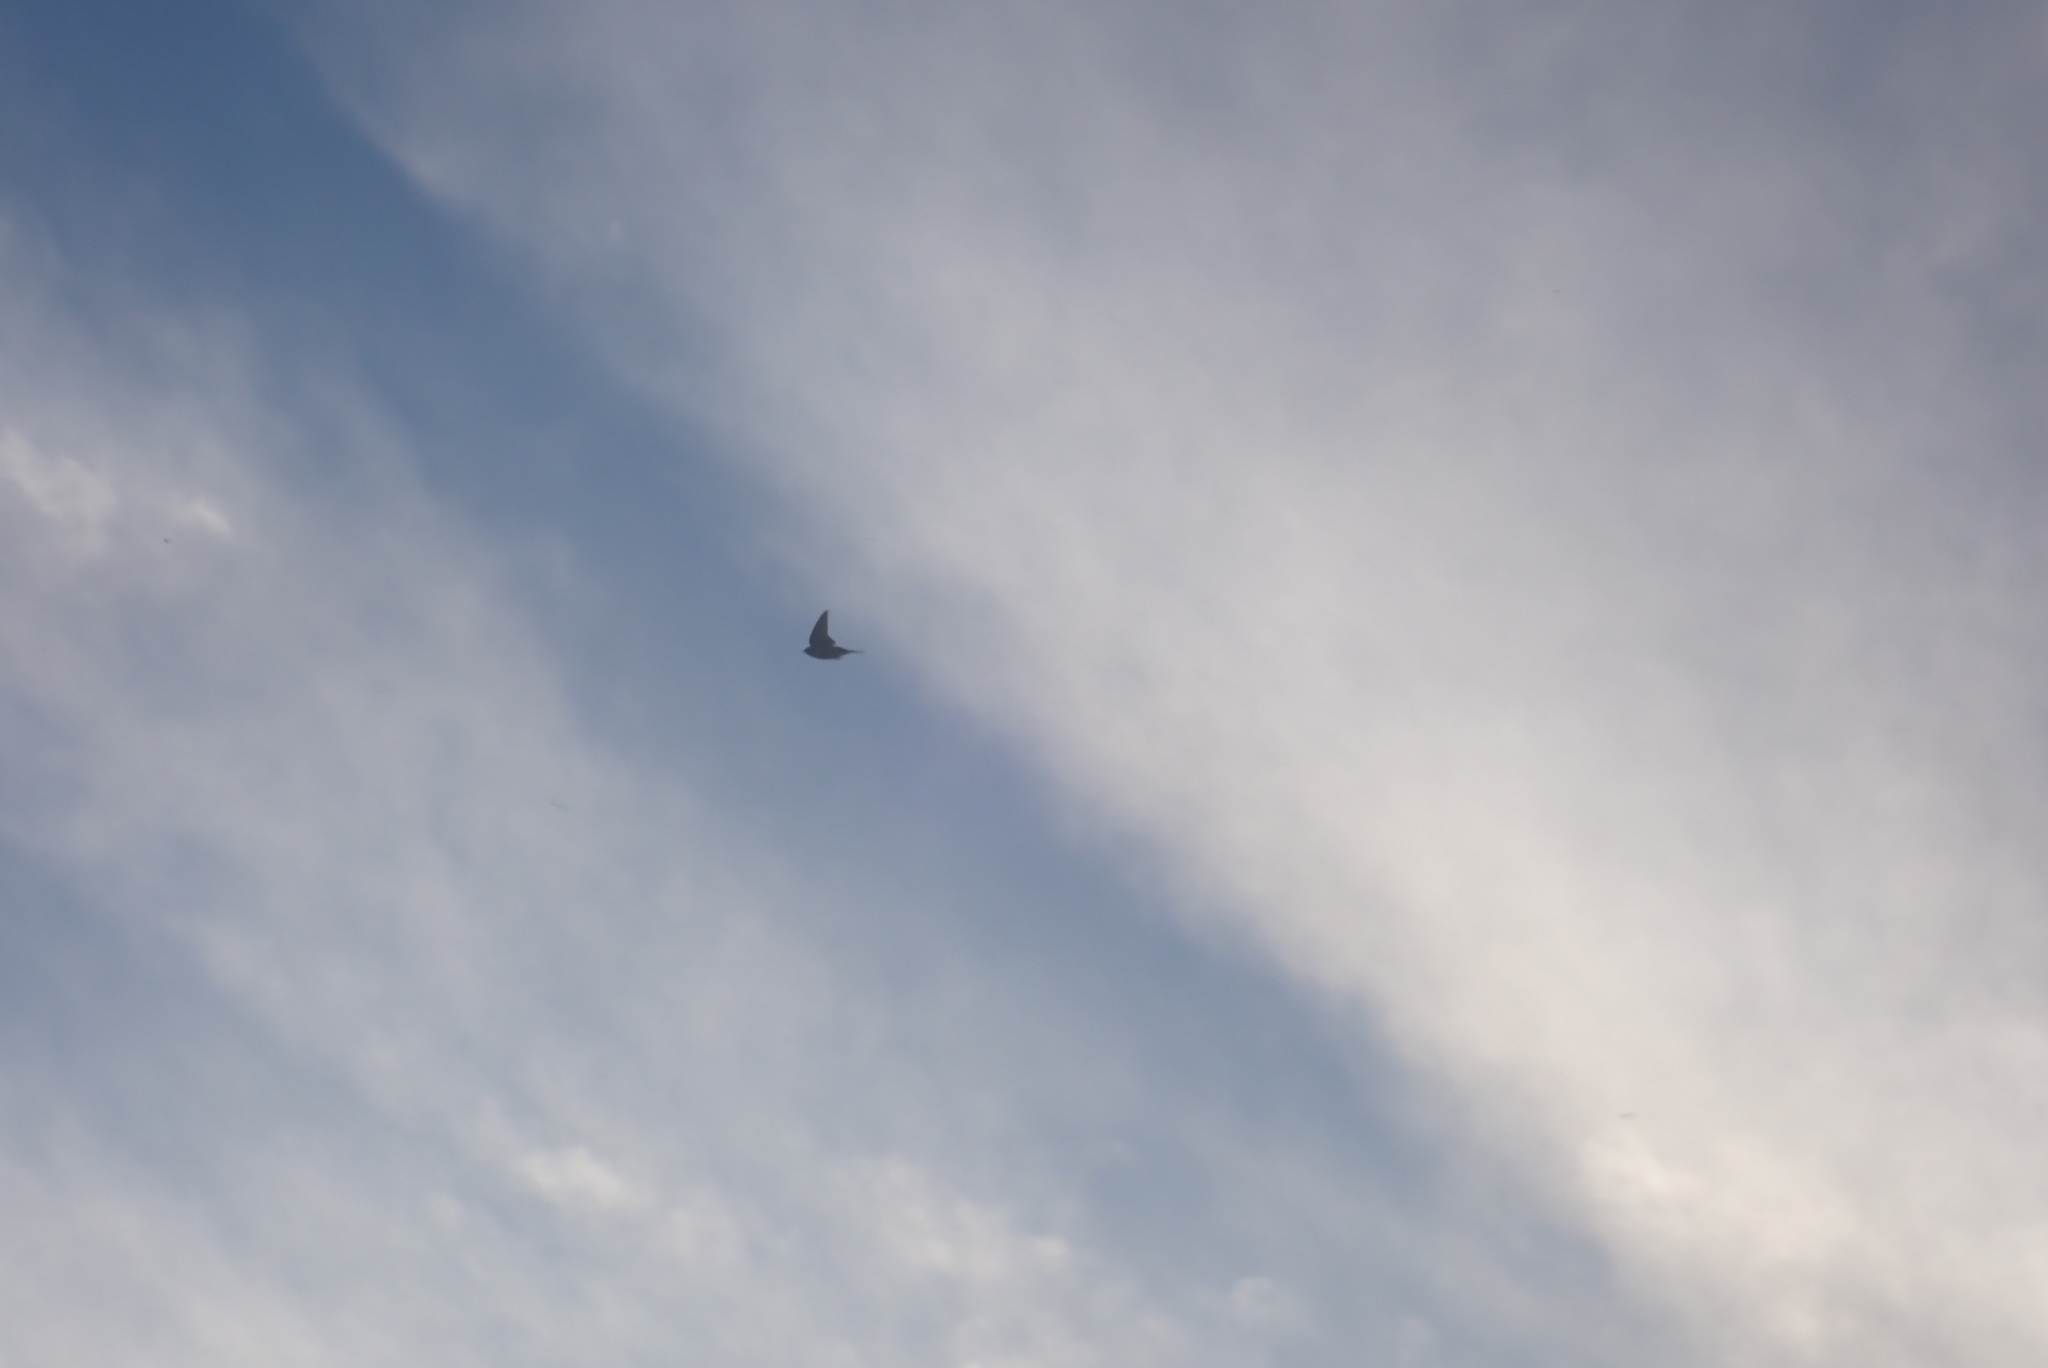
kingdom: Animalia
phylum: Chordata
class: Aves
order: Passeriformes
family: Alaudidae
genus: Alauda
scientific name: Alauda arvensis
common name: Eurasian skylark
